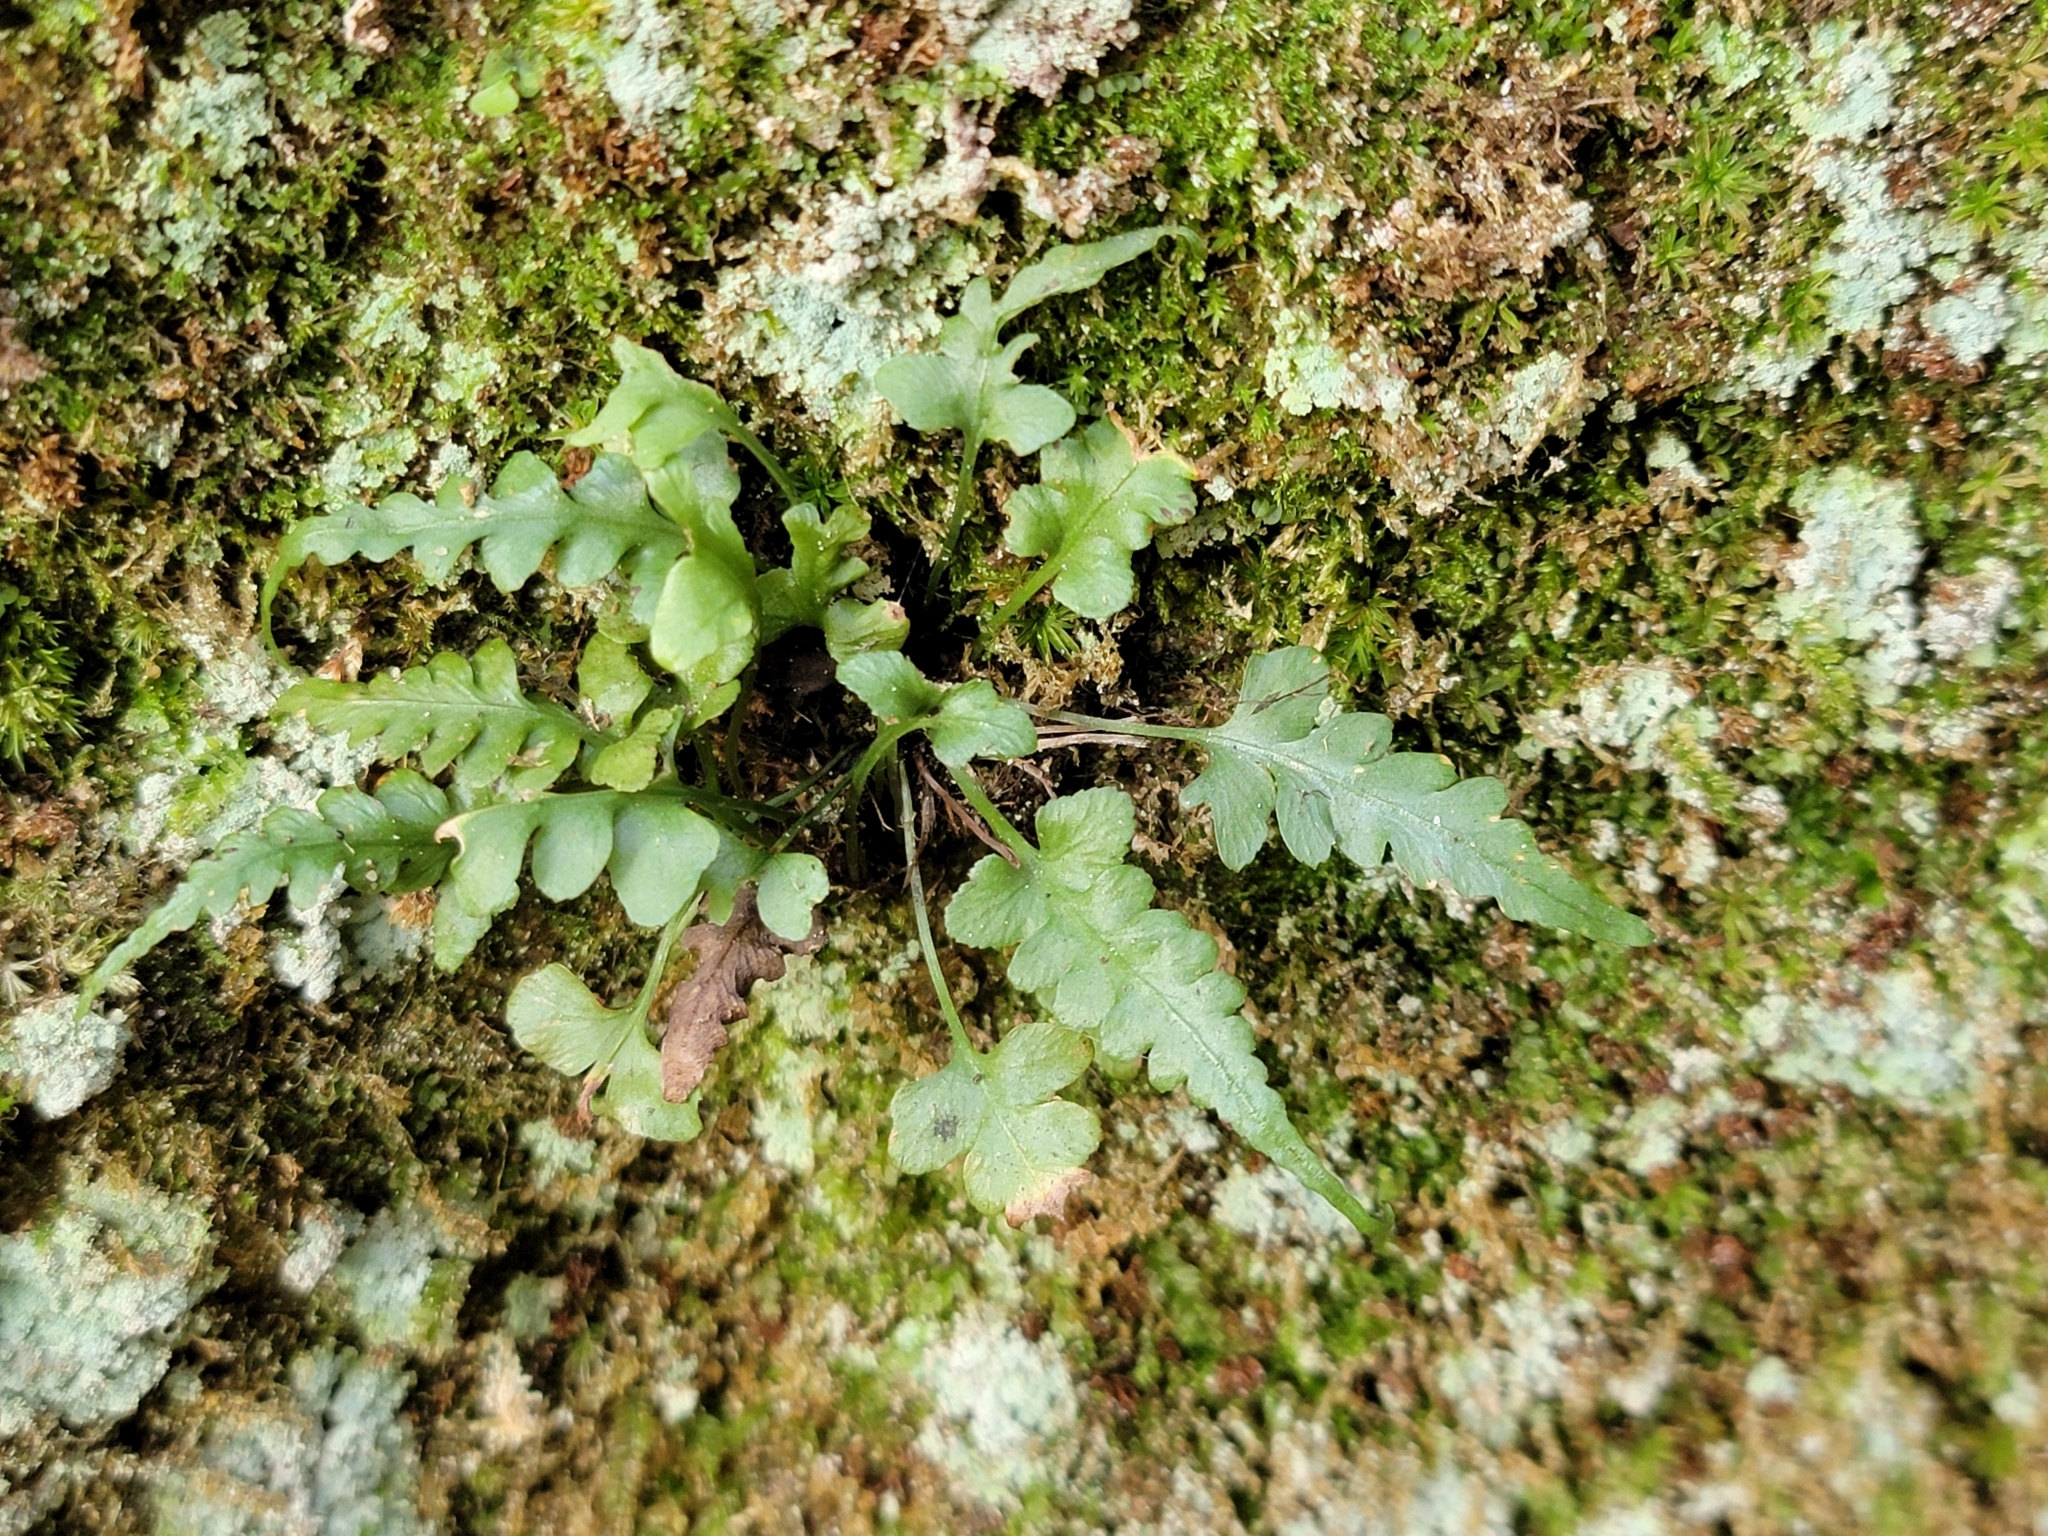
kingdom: Plantae
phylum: Tracheophyta
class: Polypodiopsida
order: Polypodiales
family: Aspleniaceae
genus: Asplenium
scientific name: Asplenium pinnatifidum
